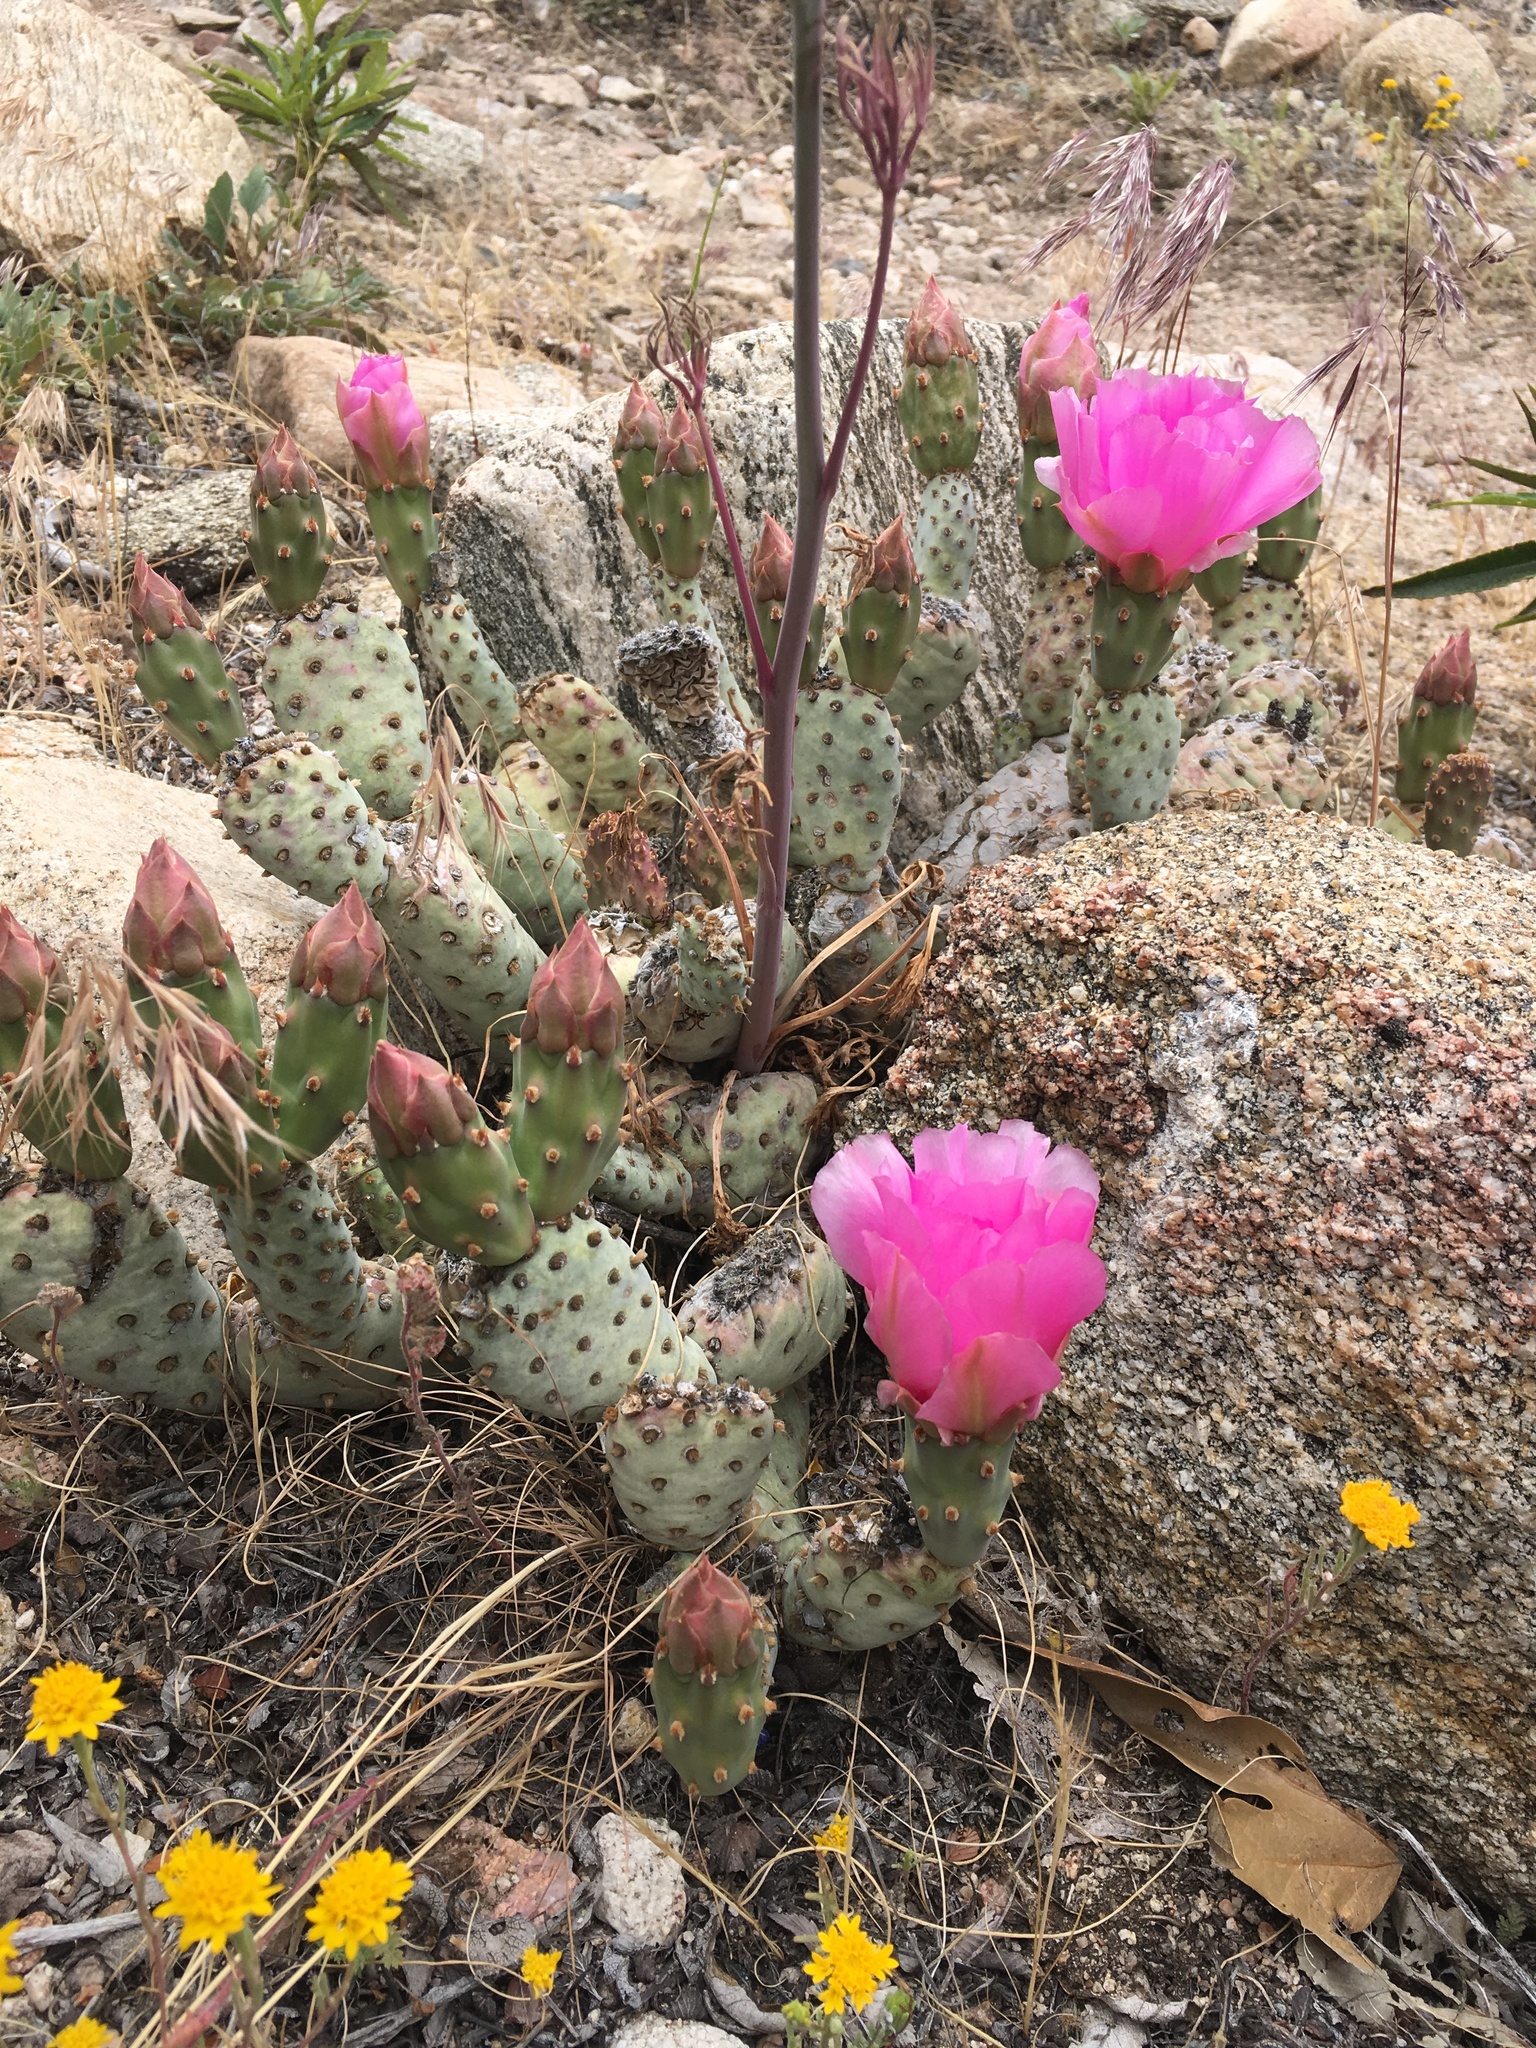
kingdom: Plantae
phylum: Tracheophyta
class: Magnoliopsida
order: Caryophyllales
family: Cactaceae
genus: Opuntia
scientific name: Opuntia basilaris
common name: Beavertail prickly-pear
